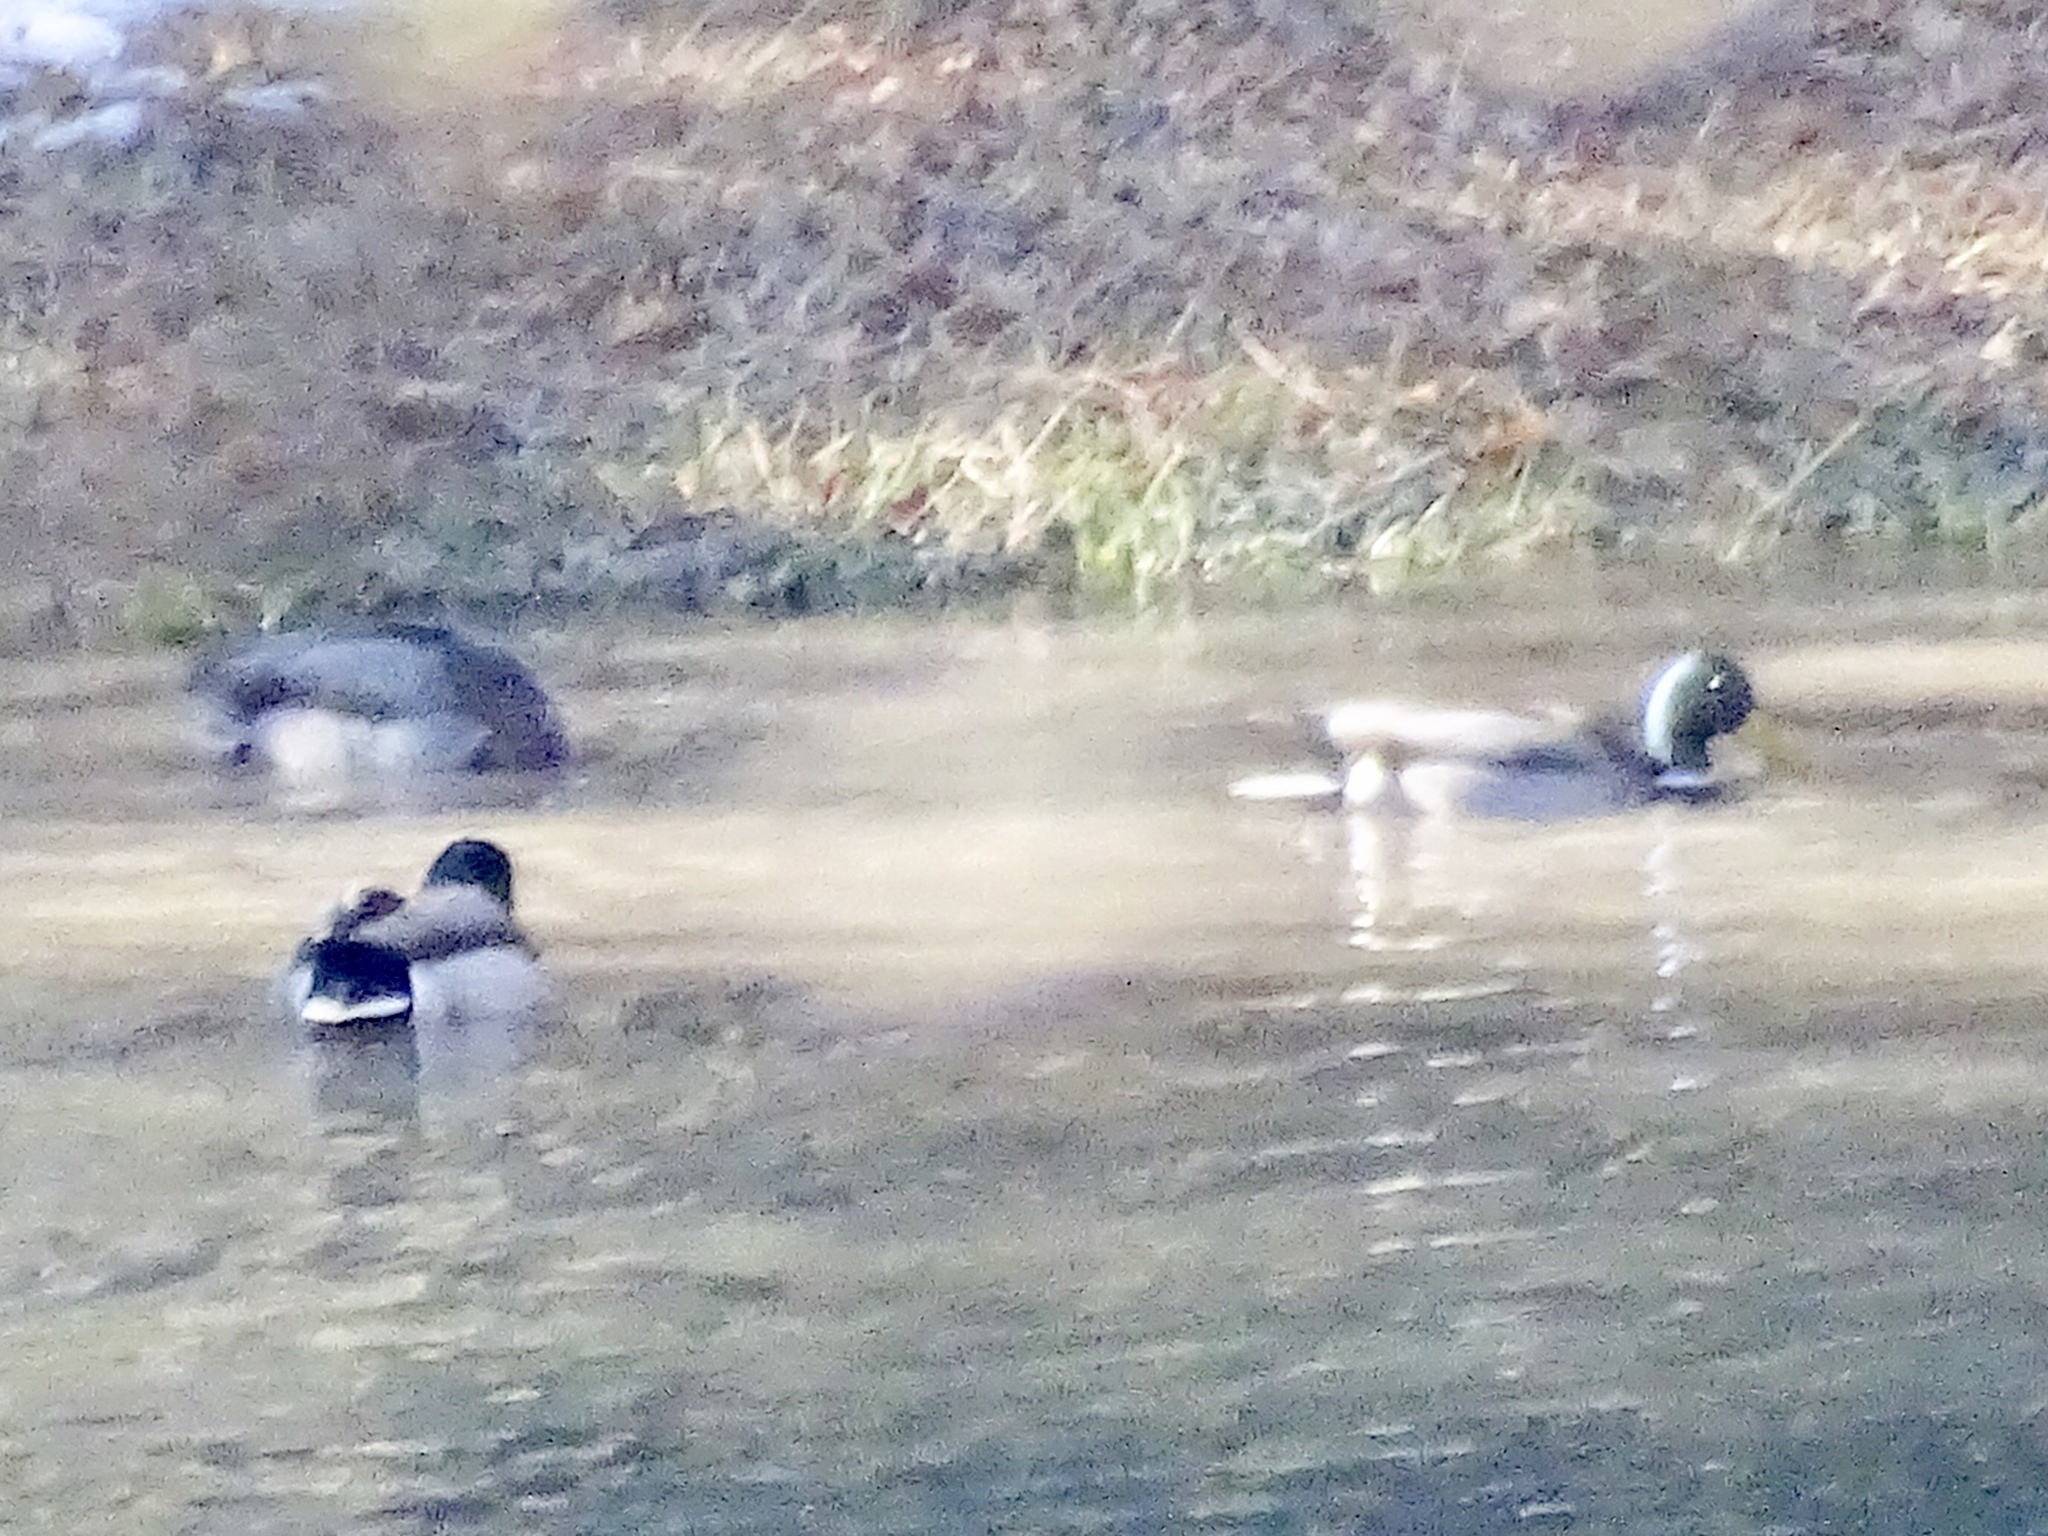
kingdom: Animalia
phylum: Chordata
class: Aves
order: Anseriformes
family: Anatidae
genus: Anas
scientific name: Anas platyrhynchos
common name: Mallard
